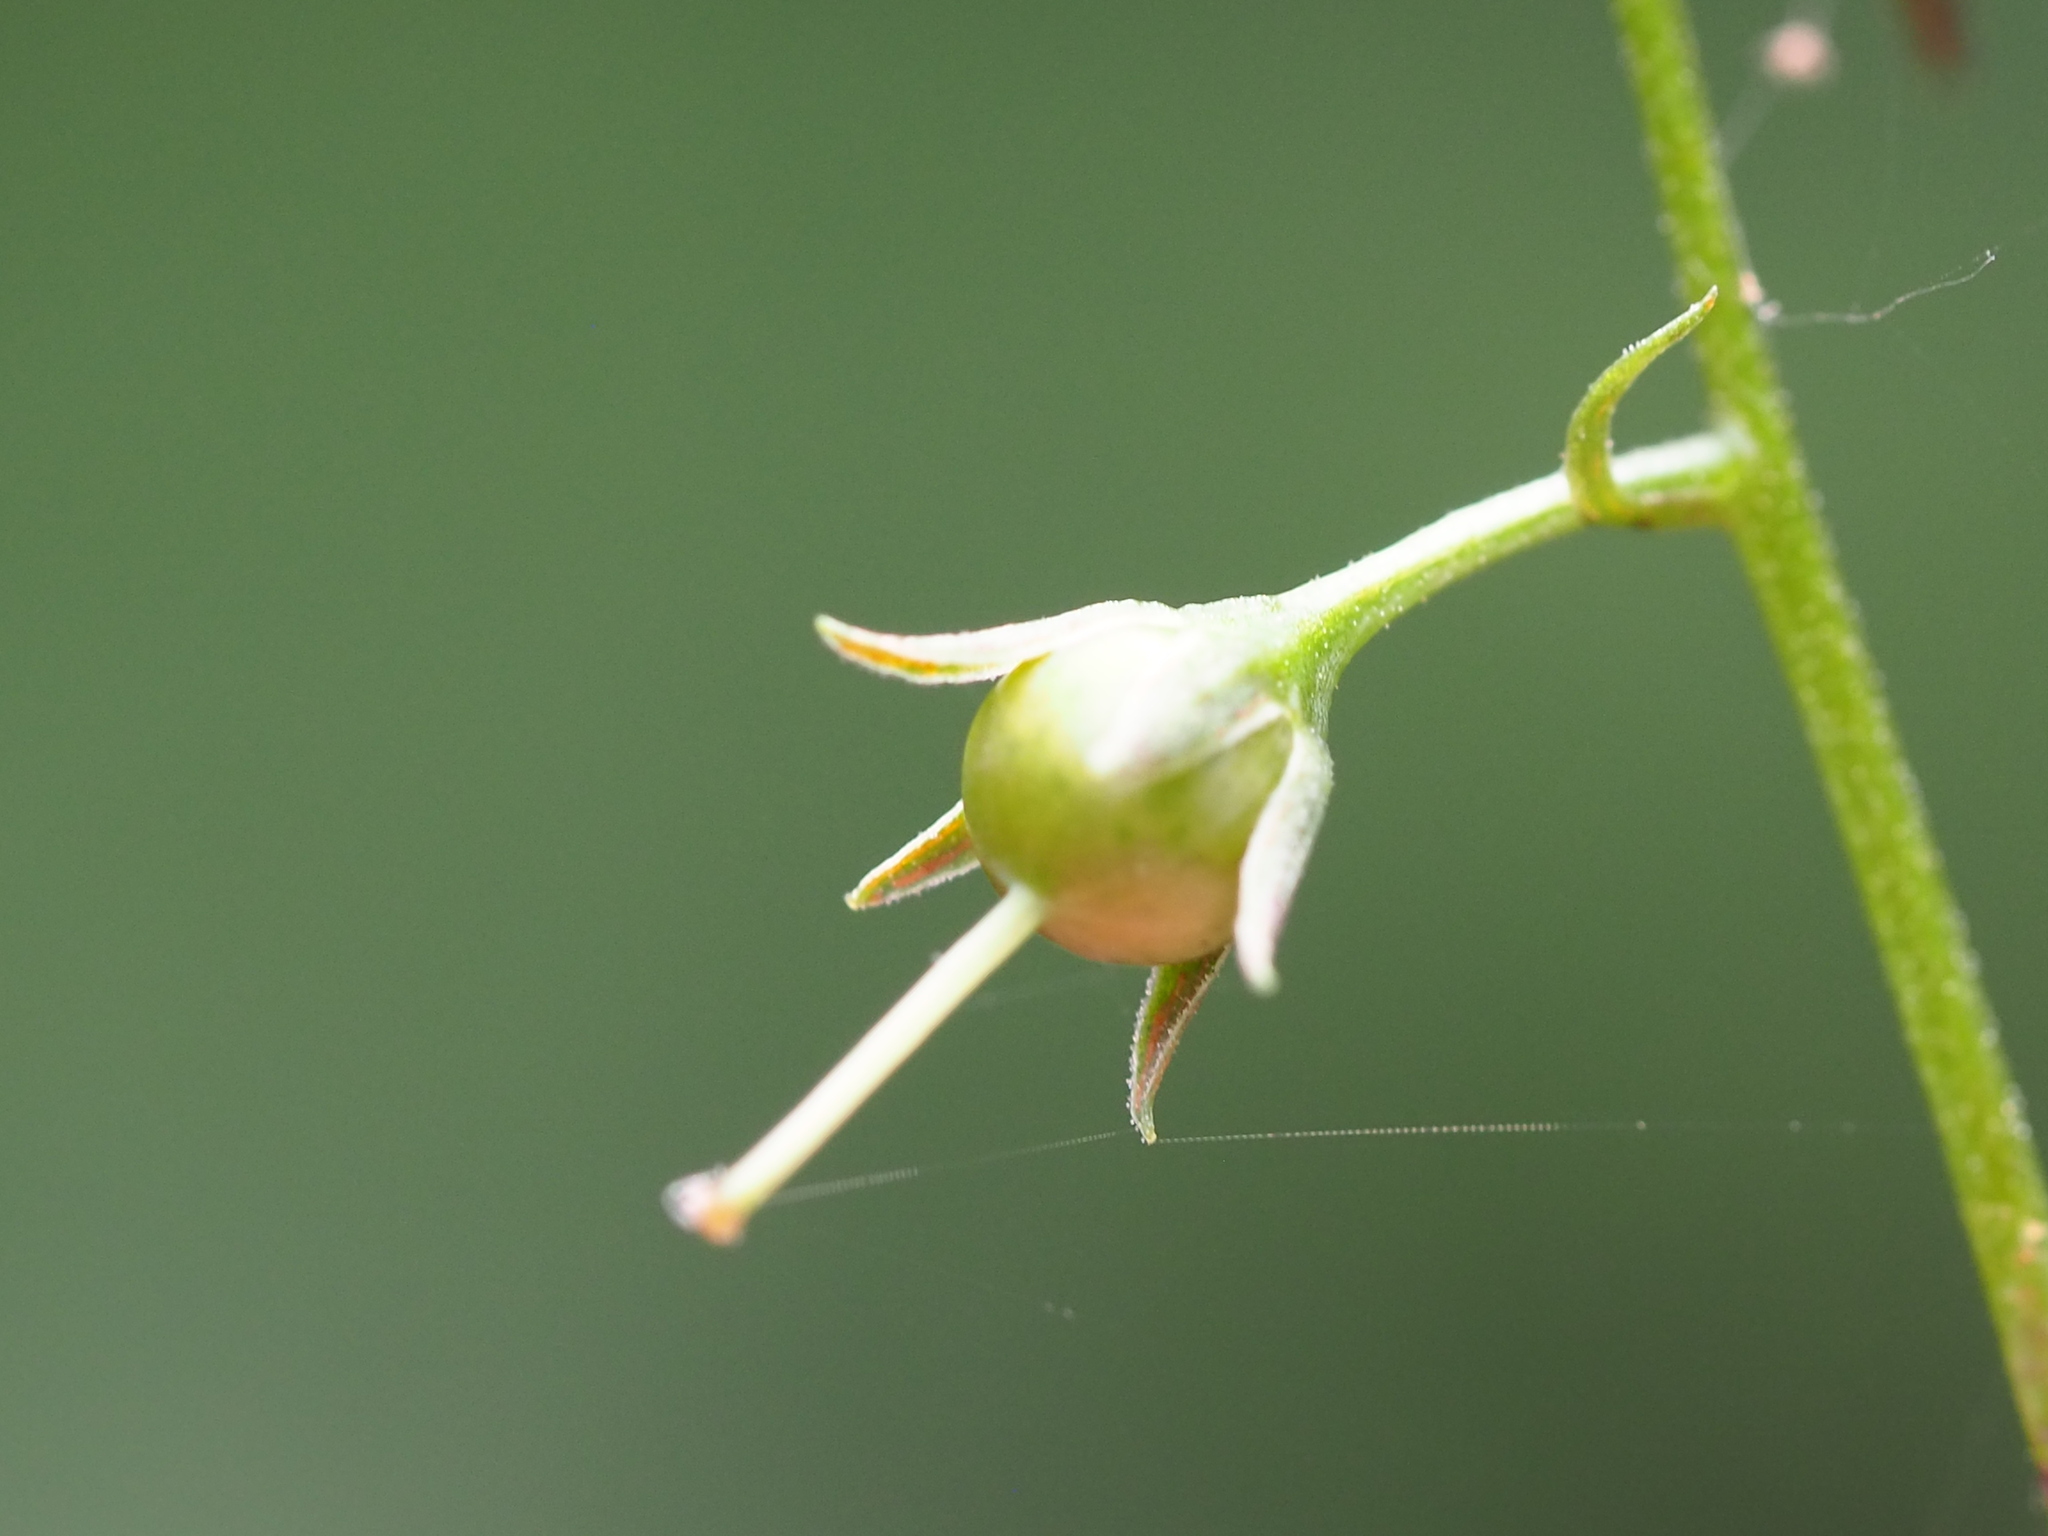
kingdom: Plantae
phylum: Tracheophyta
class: Magnoliopsida
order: Ericales
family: Primulaceae
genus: Lysimachia
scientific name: Lysimachia decurrens
